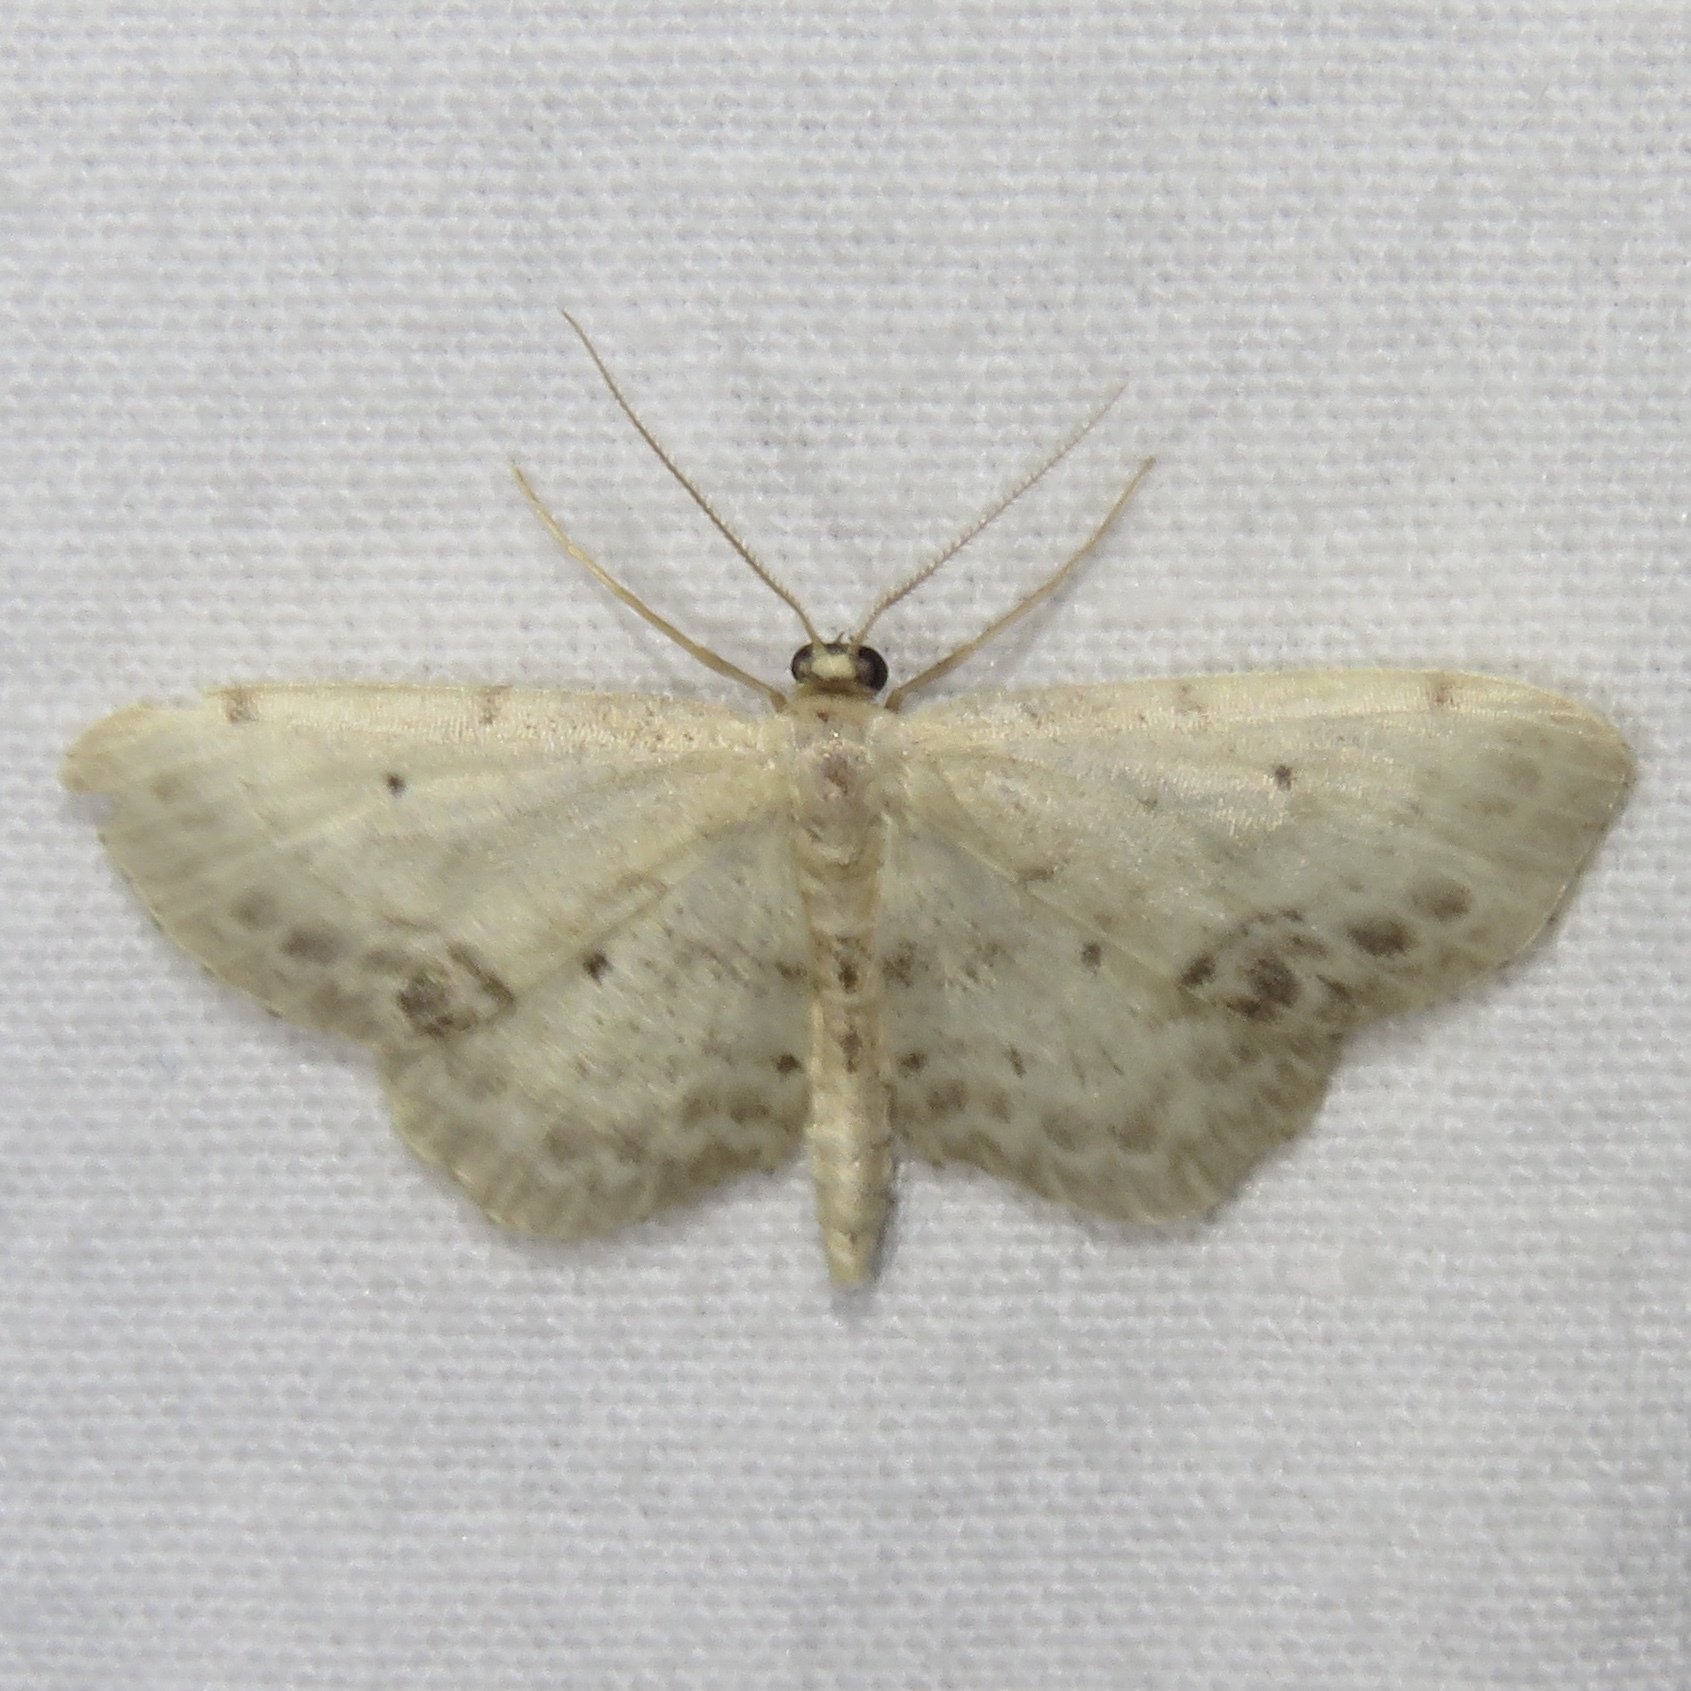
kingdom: Animalia
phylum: Arthropoda
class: Insecta
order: Lepidoptera
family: Geometridae
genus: Idaea
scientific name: Idaea dimidiata
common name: Single-dotted wave
